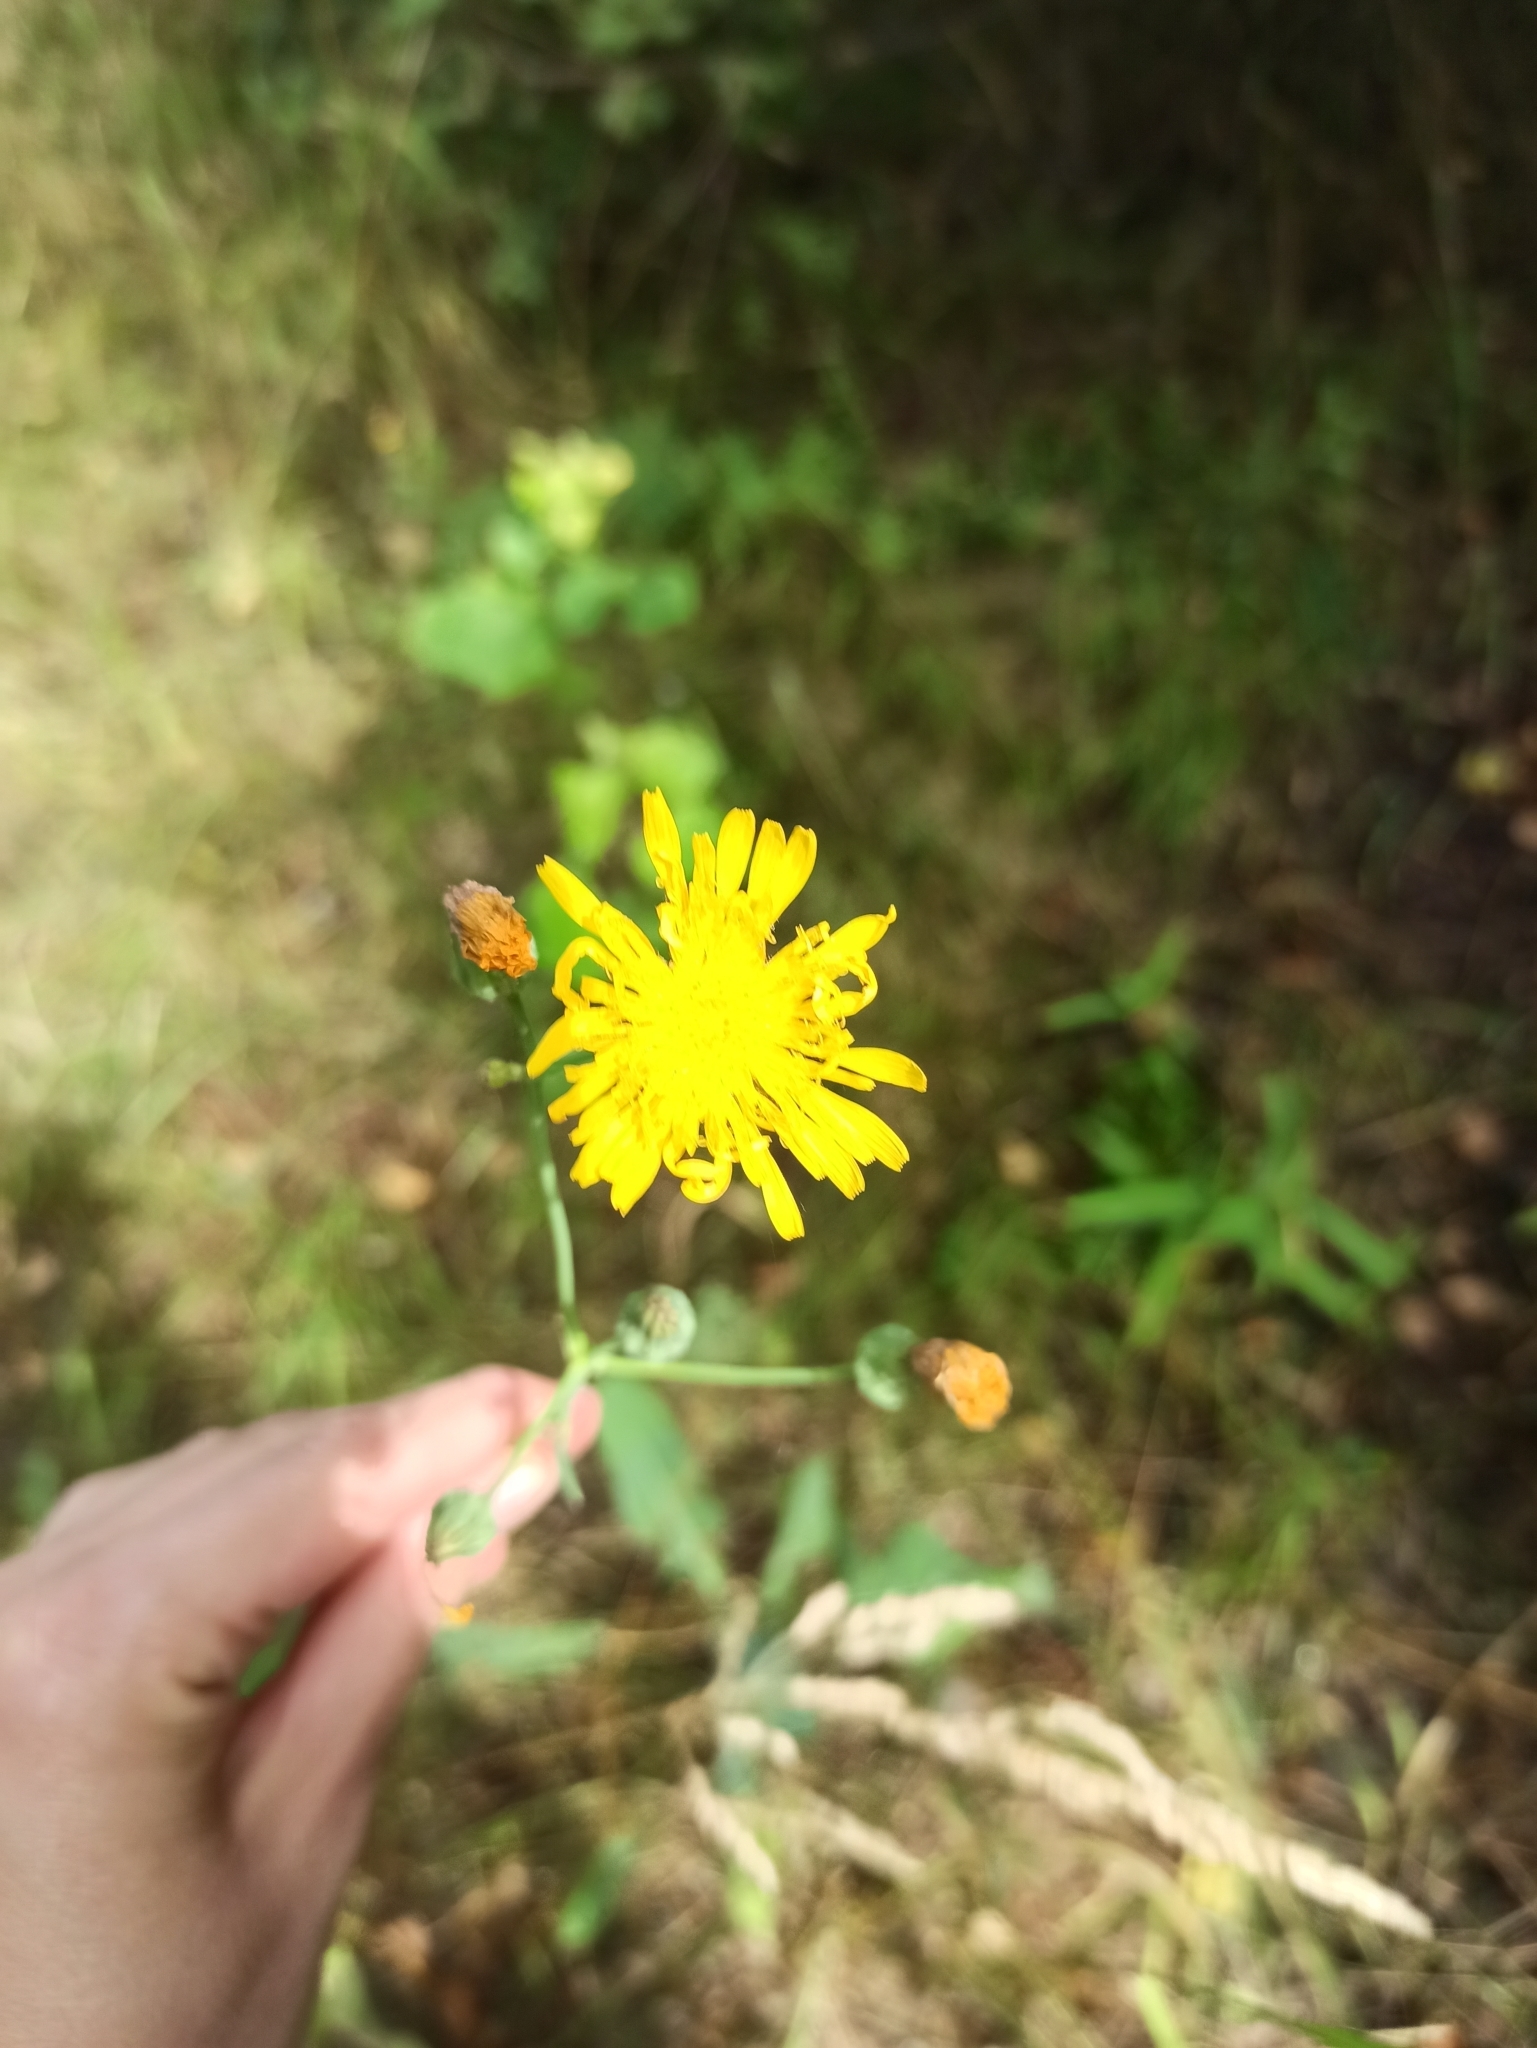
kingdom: Plantae
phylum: Tracheophyta
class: Magnoliopsida
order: Asterales
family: Asteraceae
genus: Sonchus
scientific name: Sonchus arvensis
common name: Perennial sow-thistle
